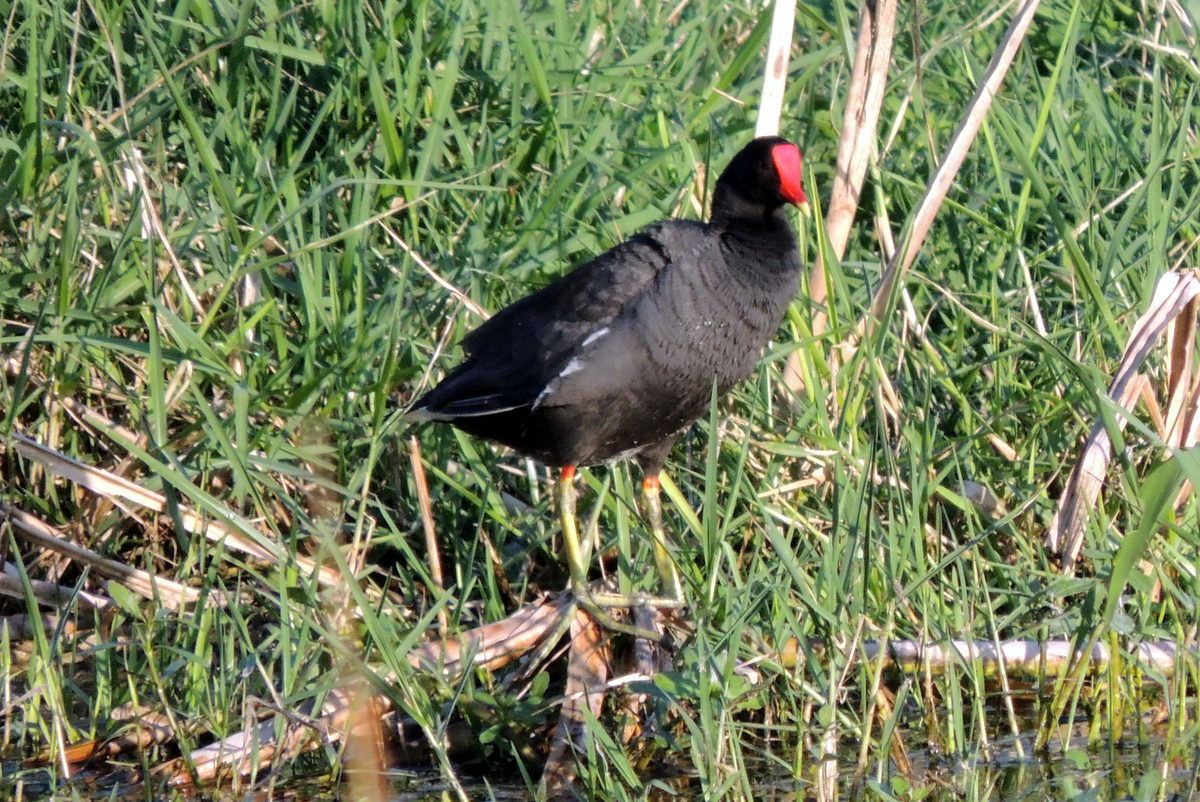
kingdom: Animalia
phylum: Chordata
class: Aves
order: Gruiformes
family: Rallidae
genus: Gallinula
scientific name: Gallinula chloropus
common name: Common moorhen
